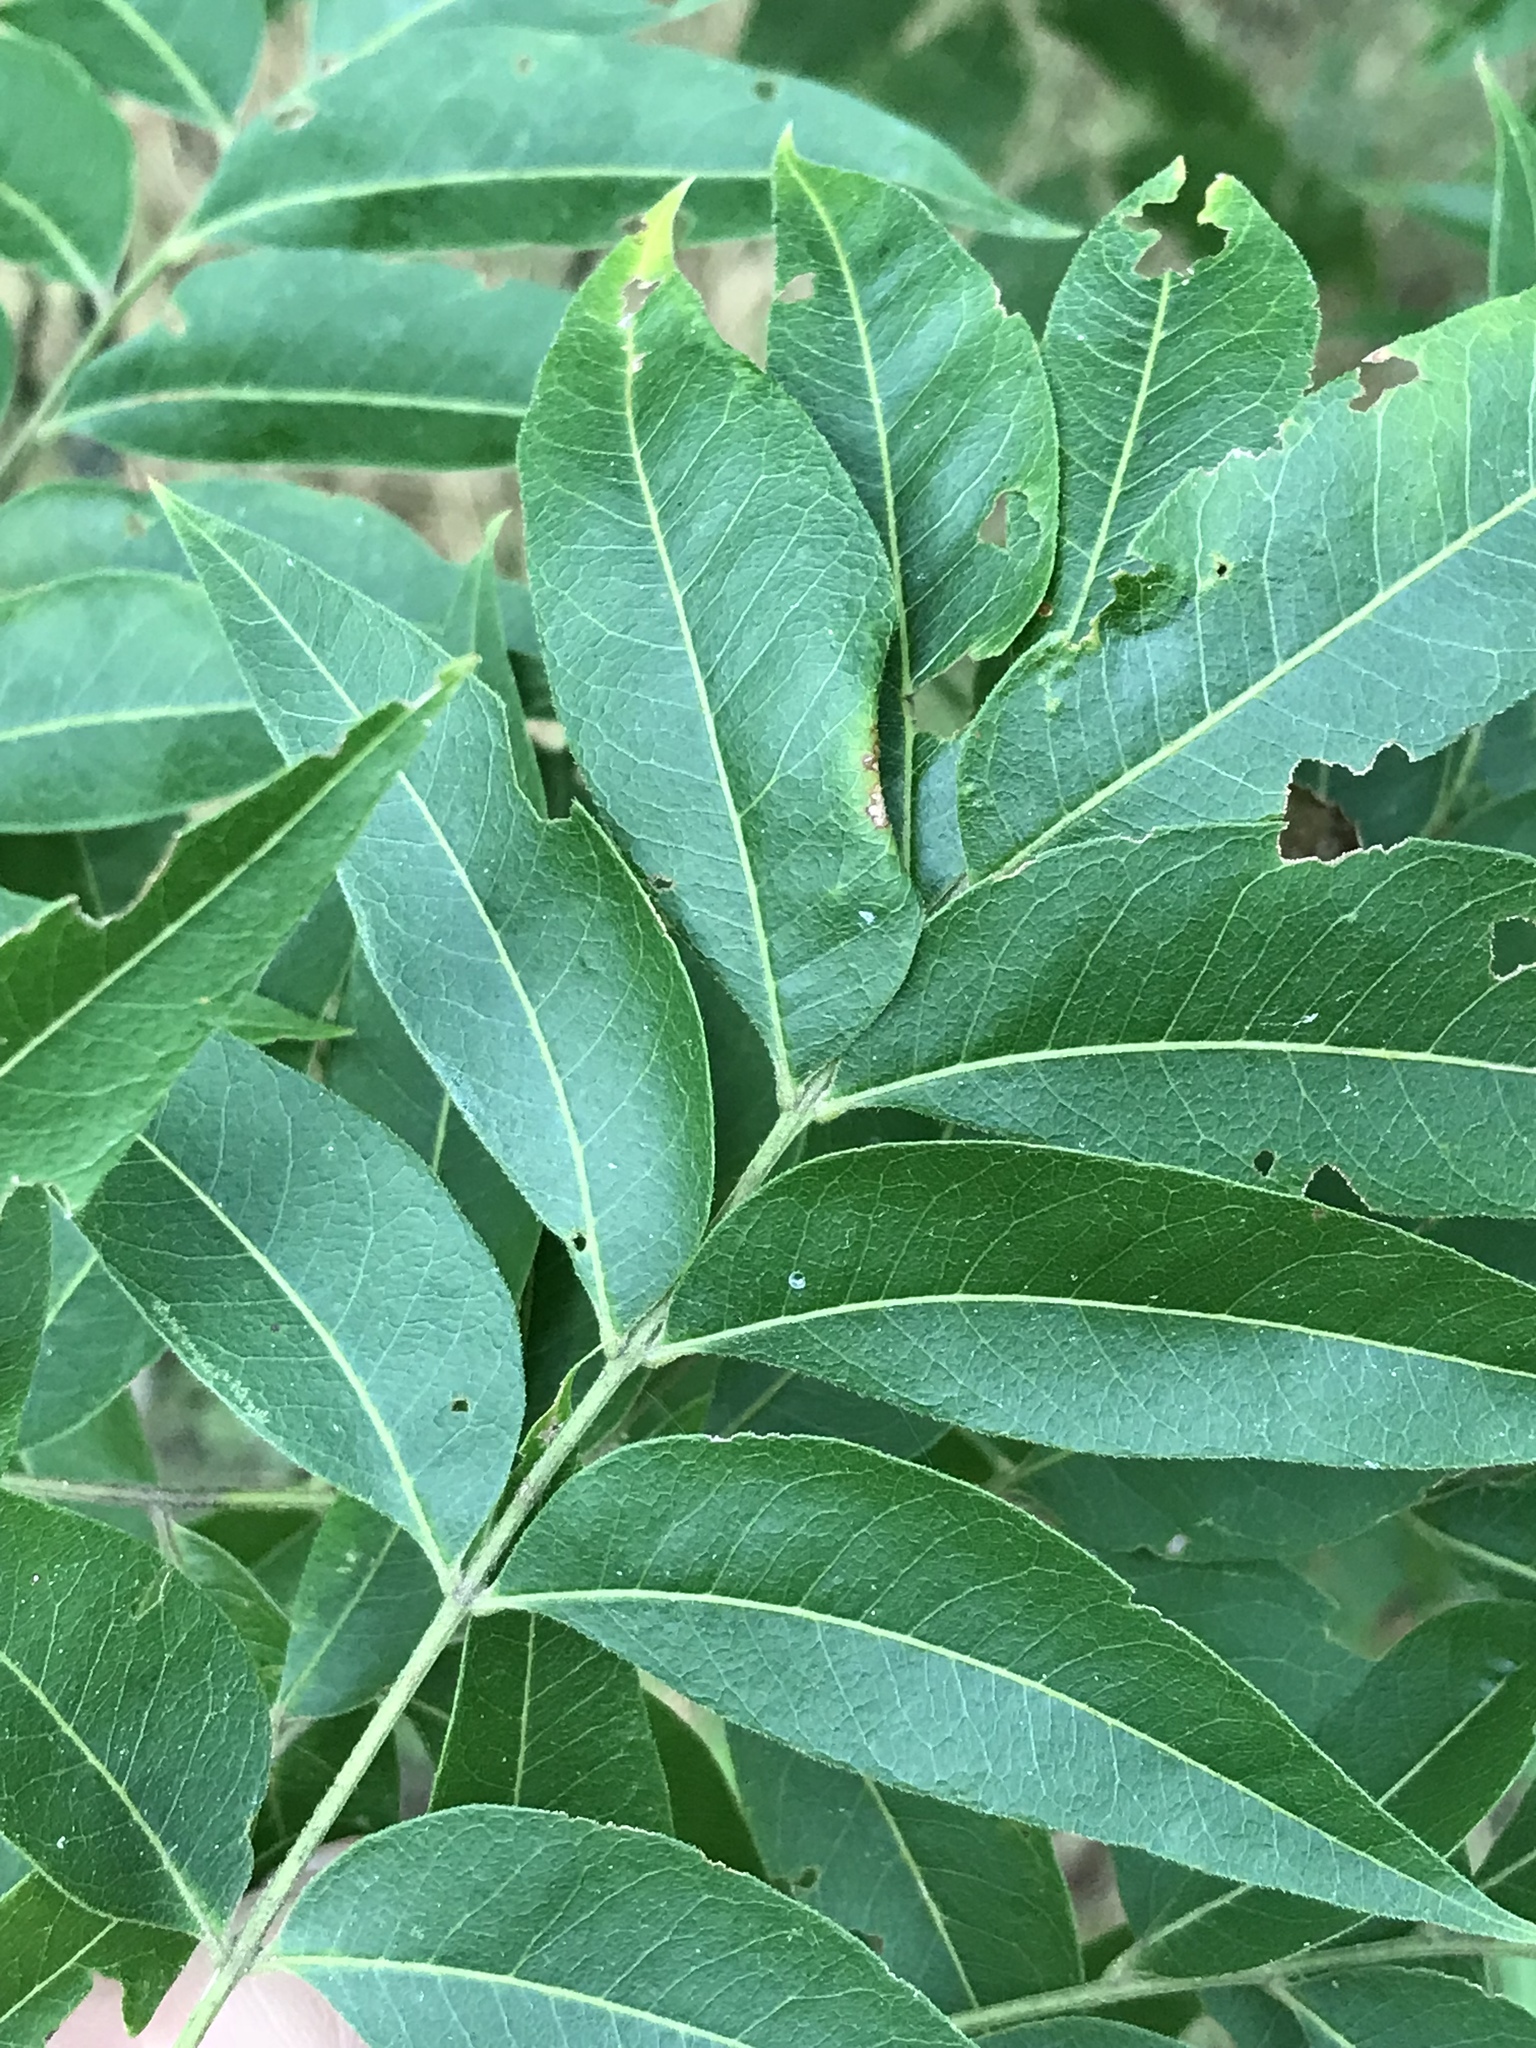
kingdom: Plantae
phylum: Tracheophyta
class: Magnoliopsida
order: Sapindales
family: Sapindaceae
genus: Sapindus
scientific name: Sapindus drummondii
